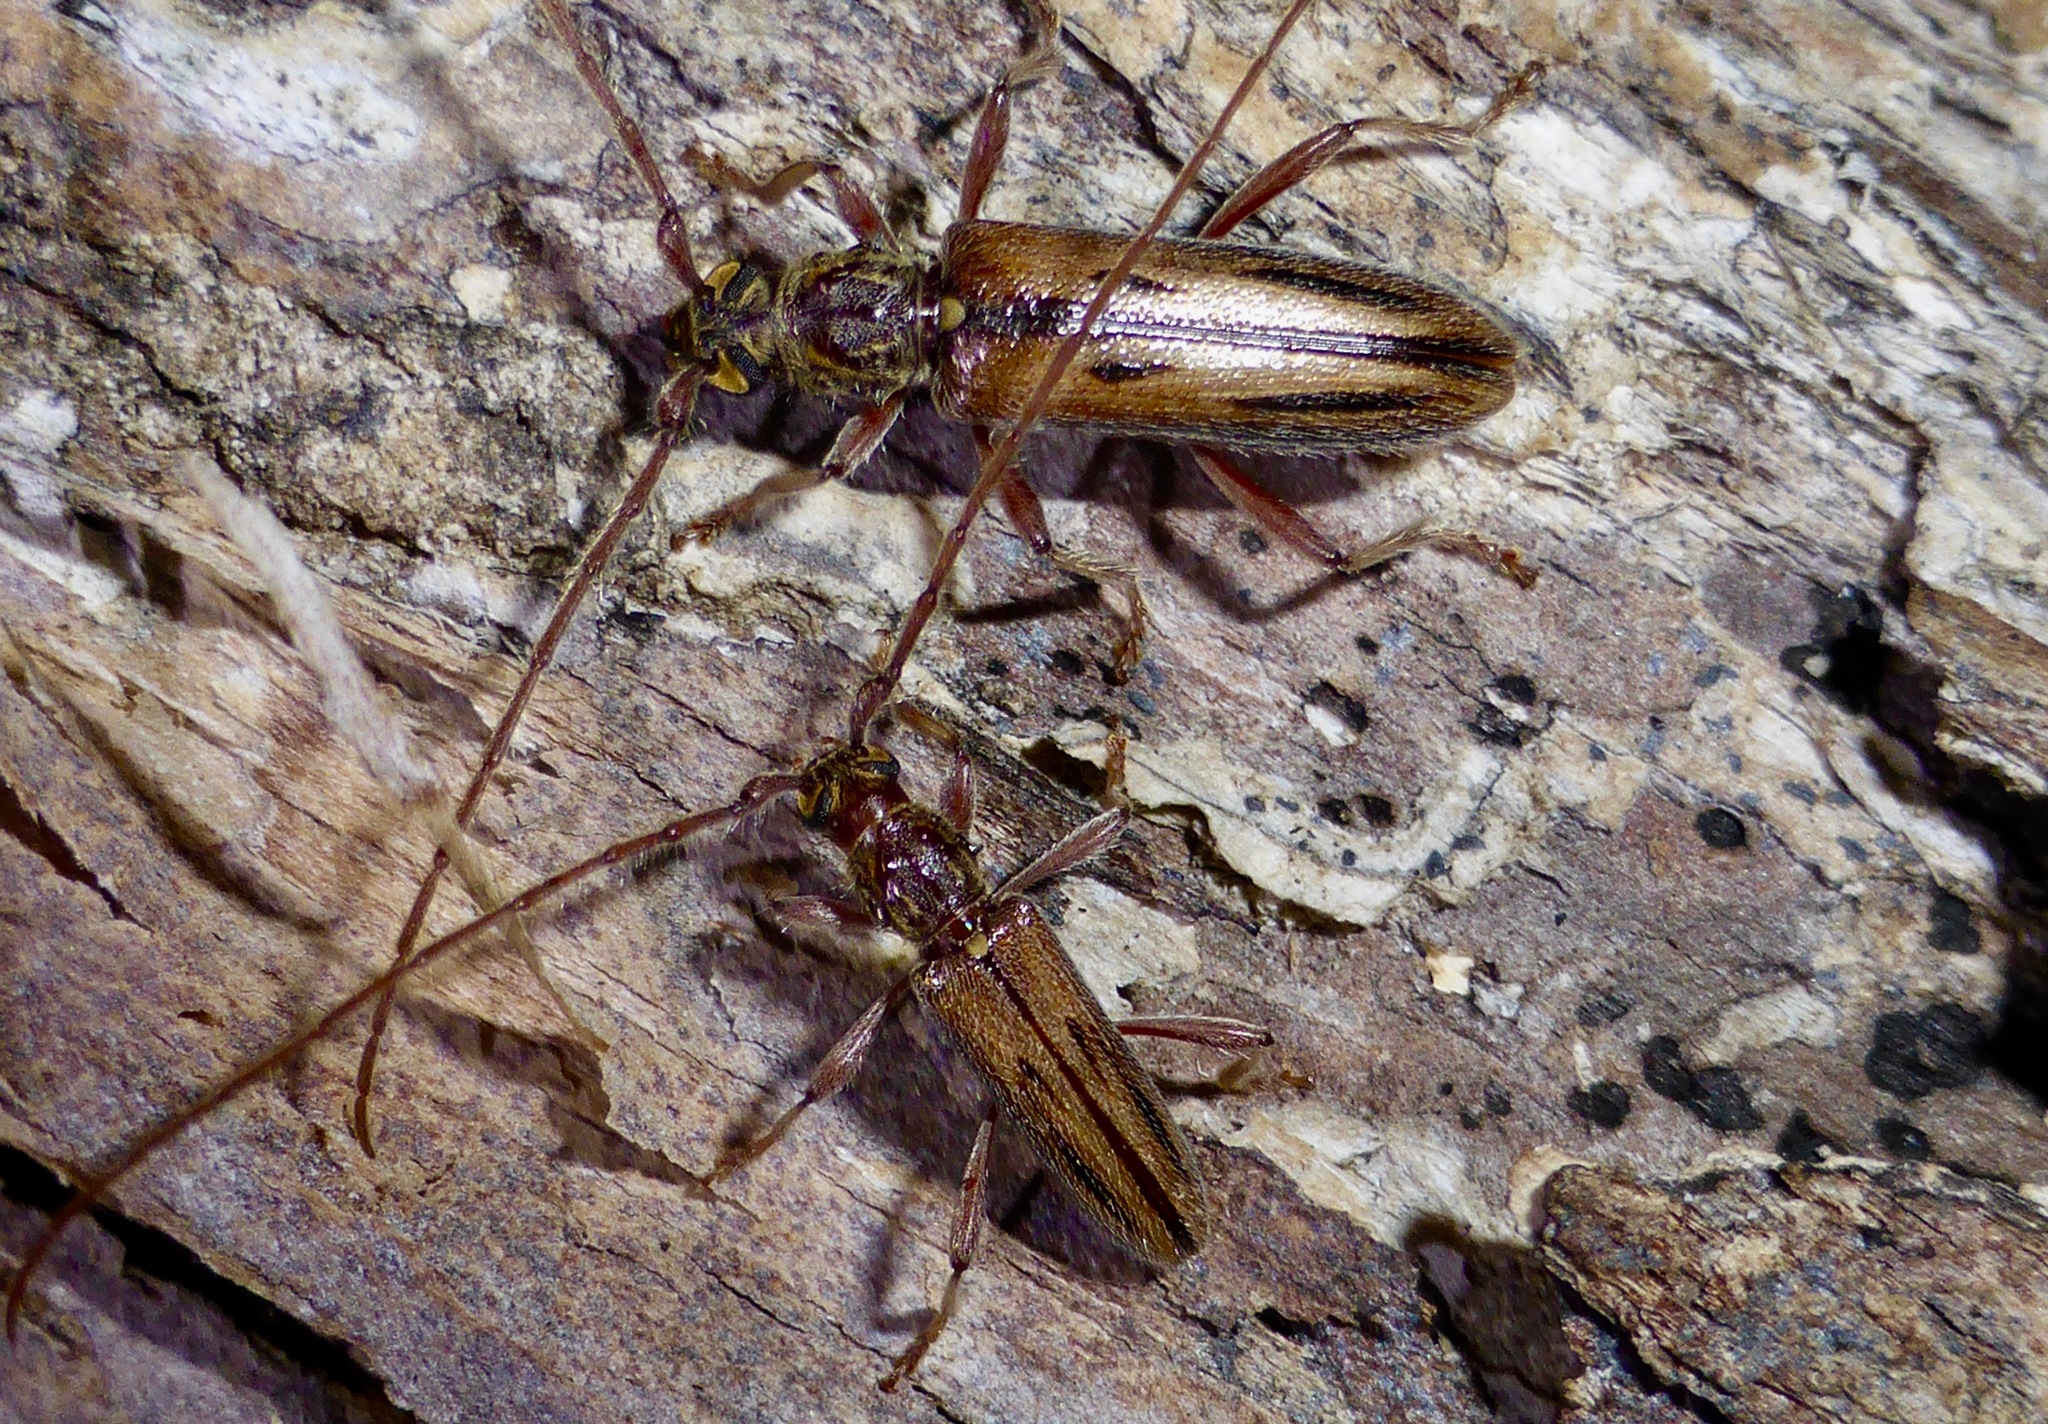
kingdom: Animalia
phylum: Arthropoda
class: Insecta
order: Coleoptera
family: Cerambycidae
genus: Didymocantha
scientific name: Didymocantha sublineata
